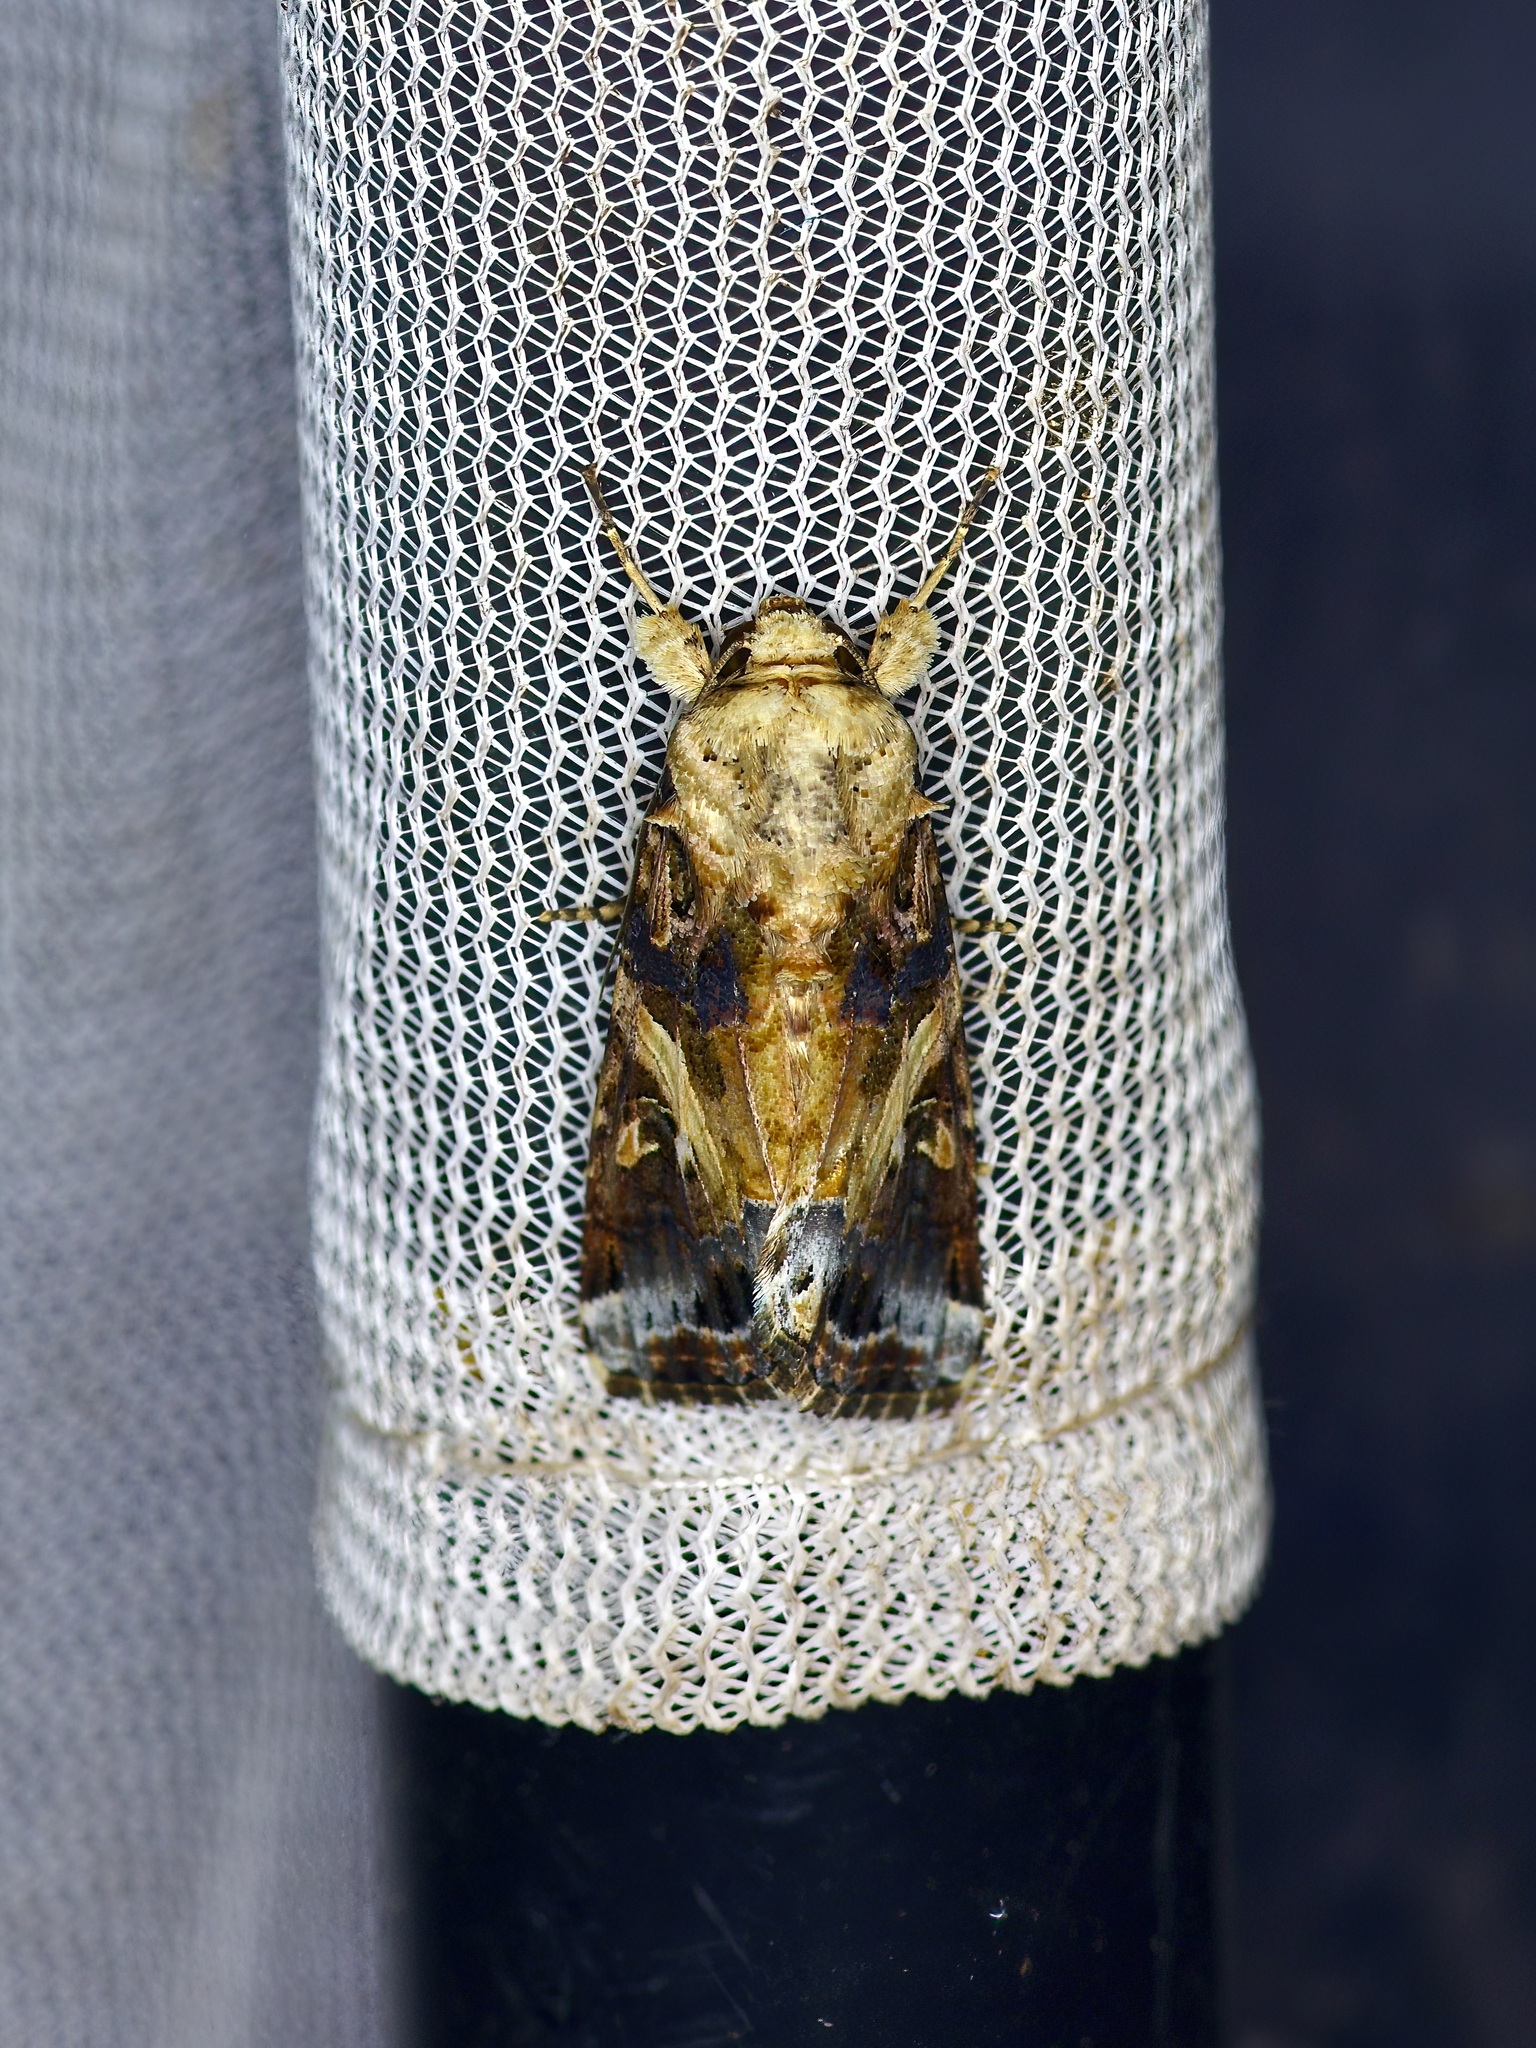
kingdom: Animalia
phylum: Arthropoda
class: Insecta
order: Lepidoptera
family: Noctuidae
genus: Spodoptera
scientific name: Spodoptera latifascia
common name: Velvet armyworm moth
